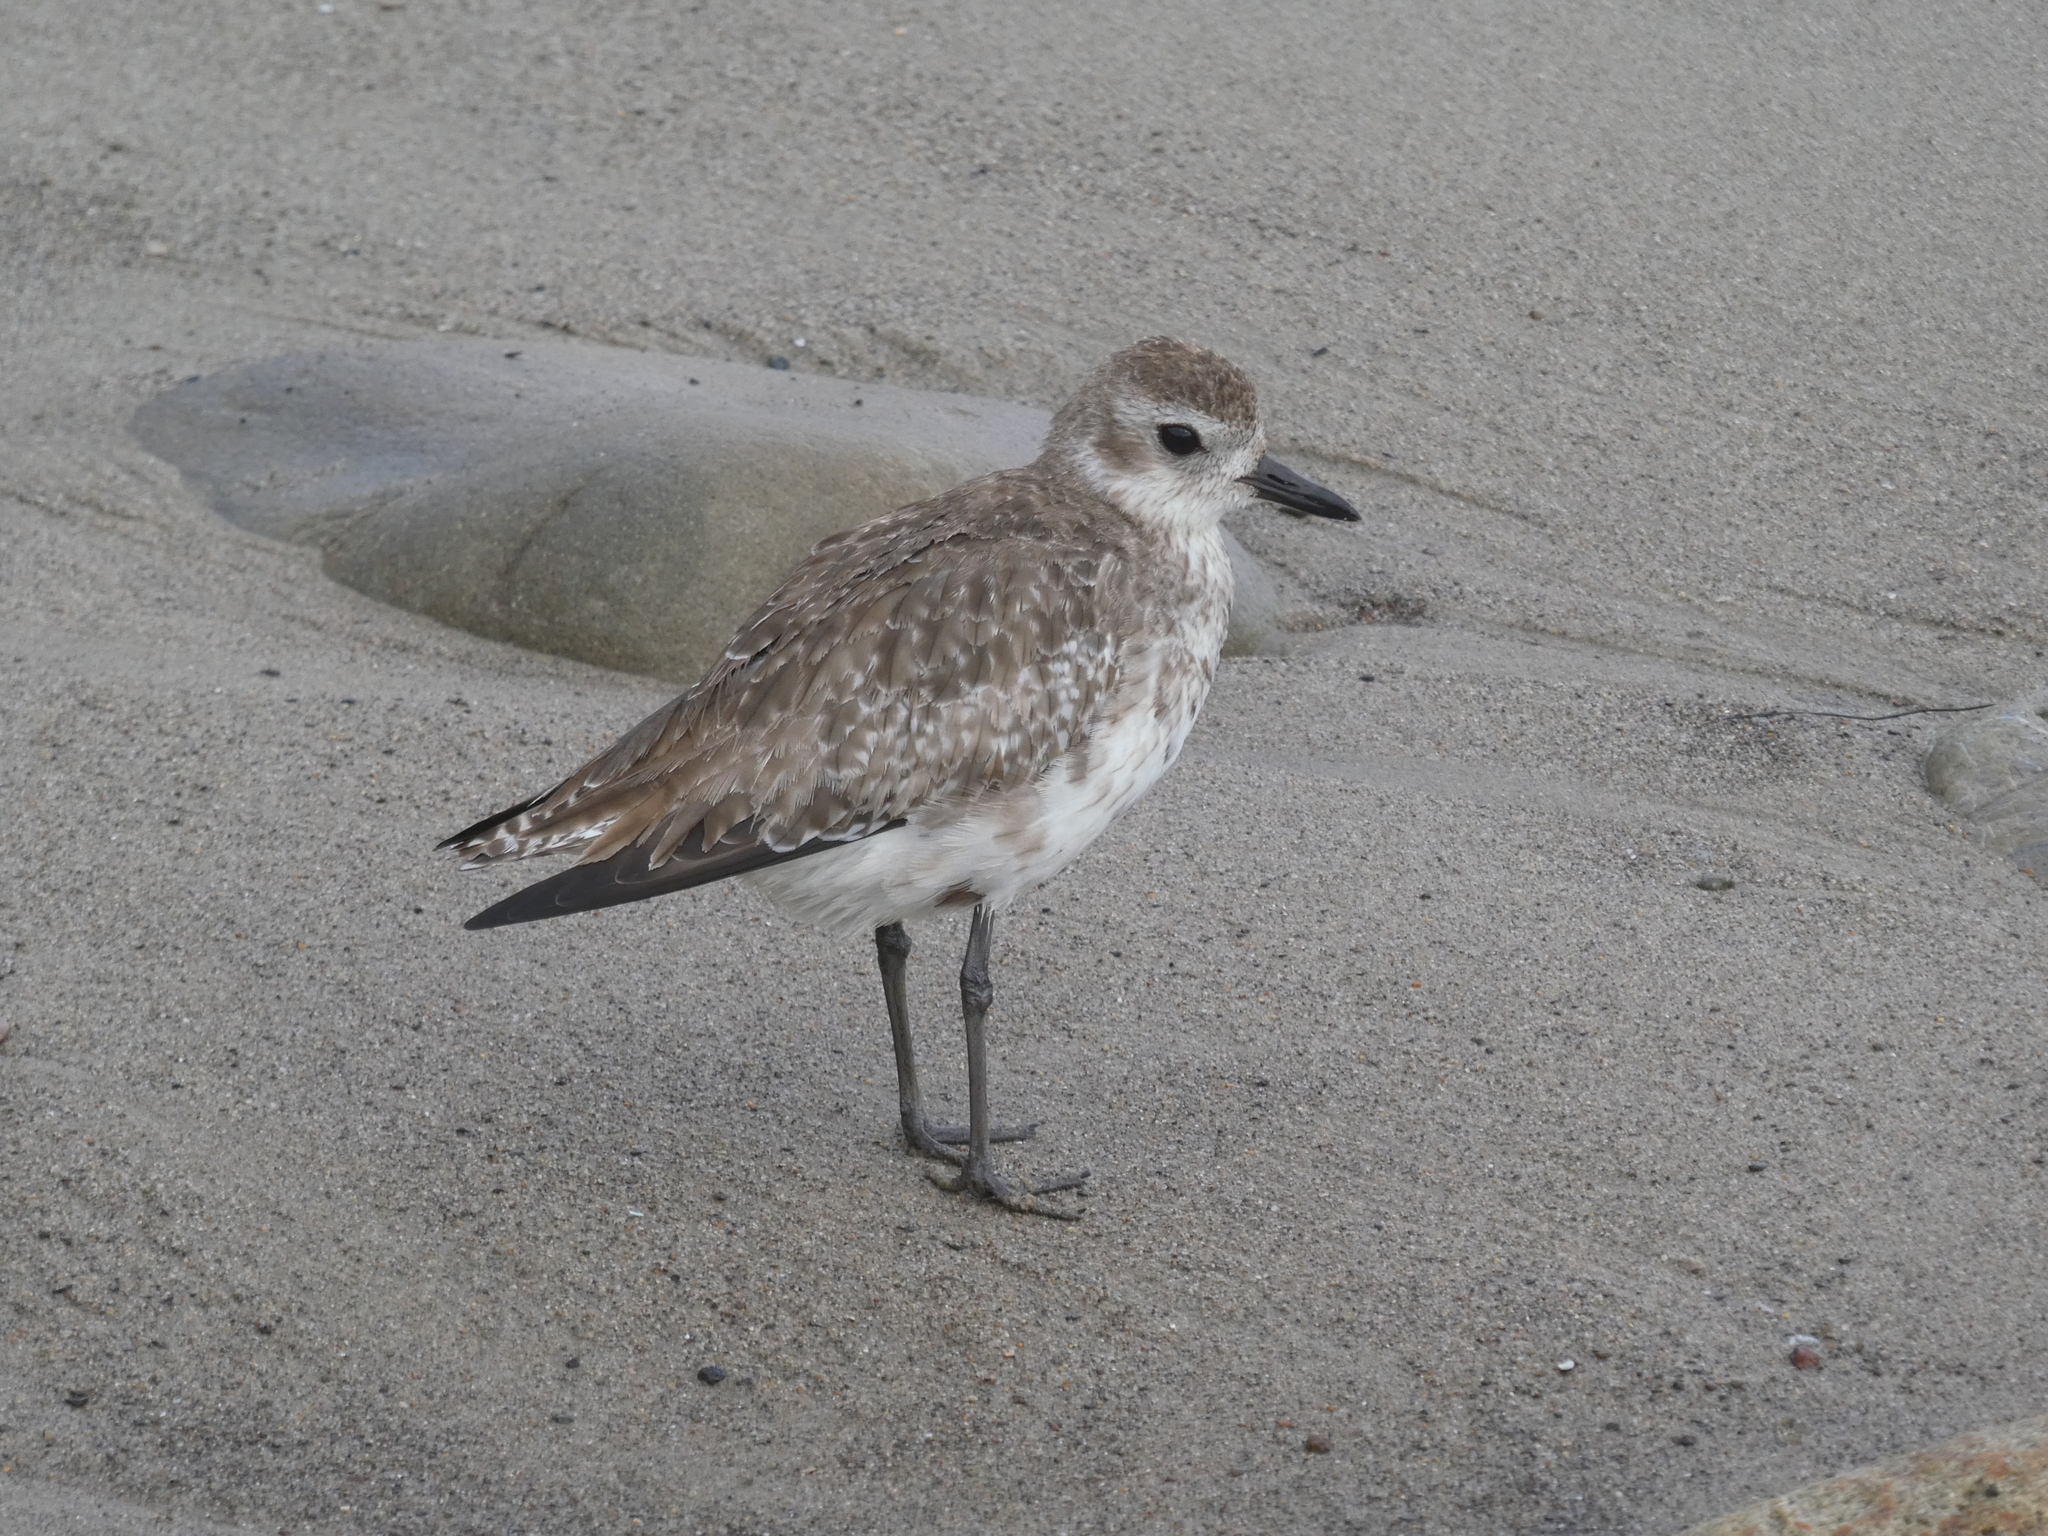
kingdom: Animalia
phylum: Chordata
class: Aves
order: Charadriiformes
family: Charadriidae
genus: Pluvialis
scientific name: Pluvialis squatarola
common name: Grey plover
